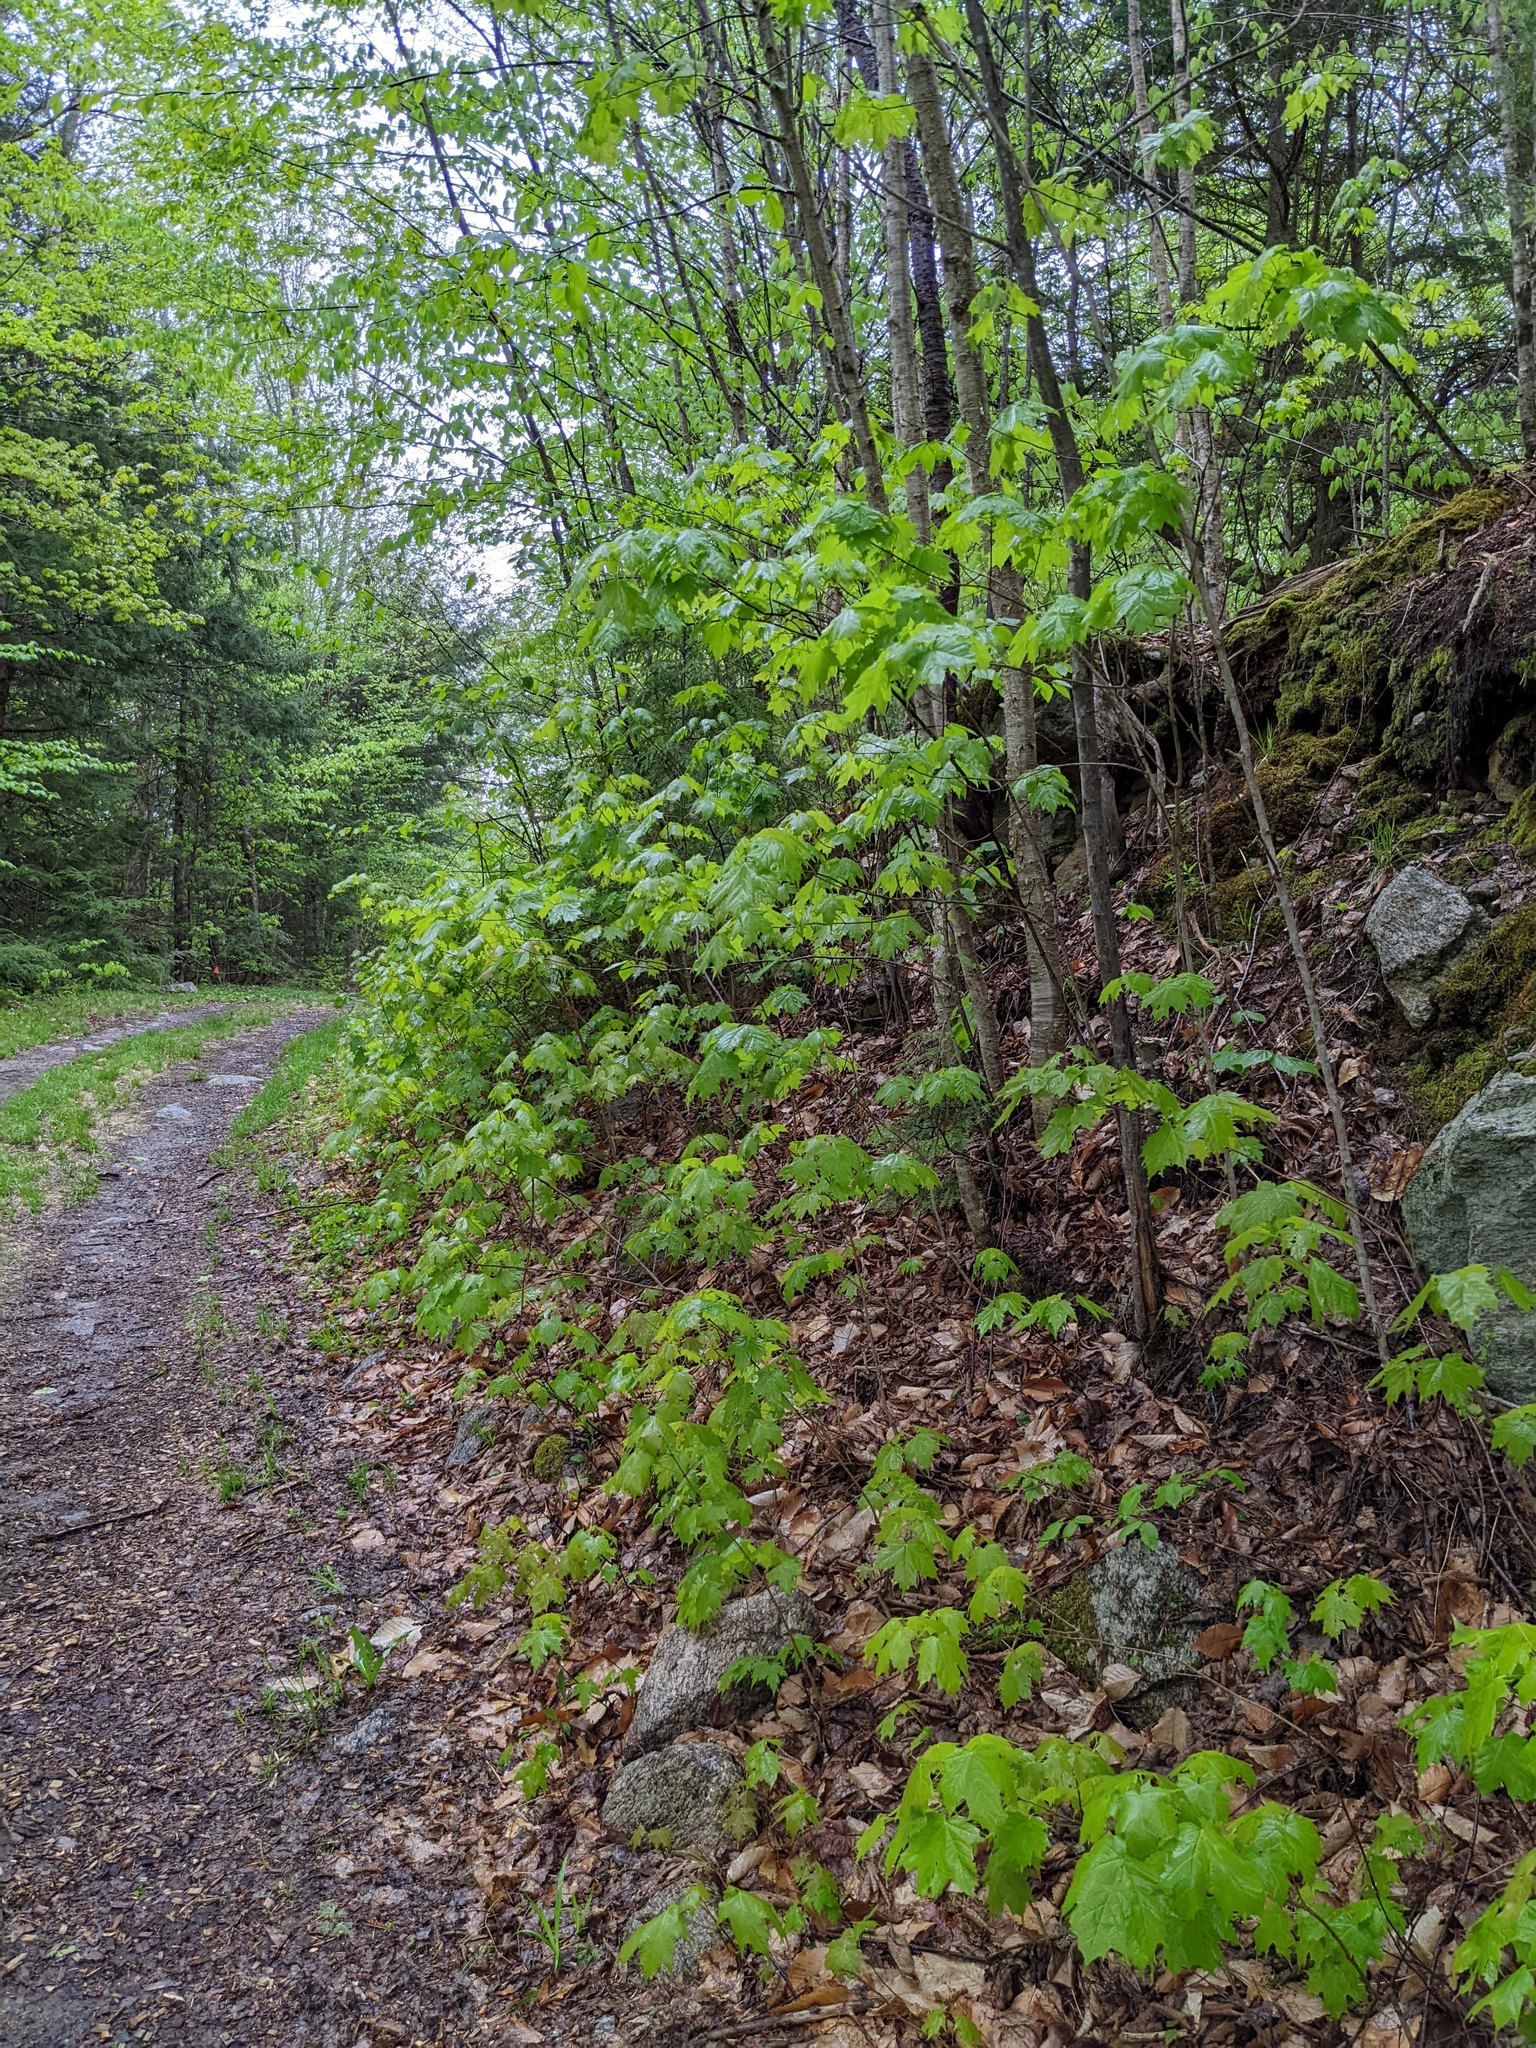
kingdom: Plantae
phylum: Tracheophyta
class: Magnoliopsida
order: Sapindales
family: Sapindaceae
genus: Acer
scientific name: Acer saccharum
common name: Sugar maple
